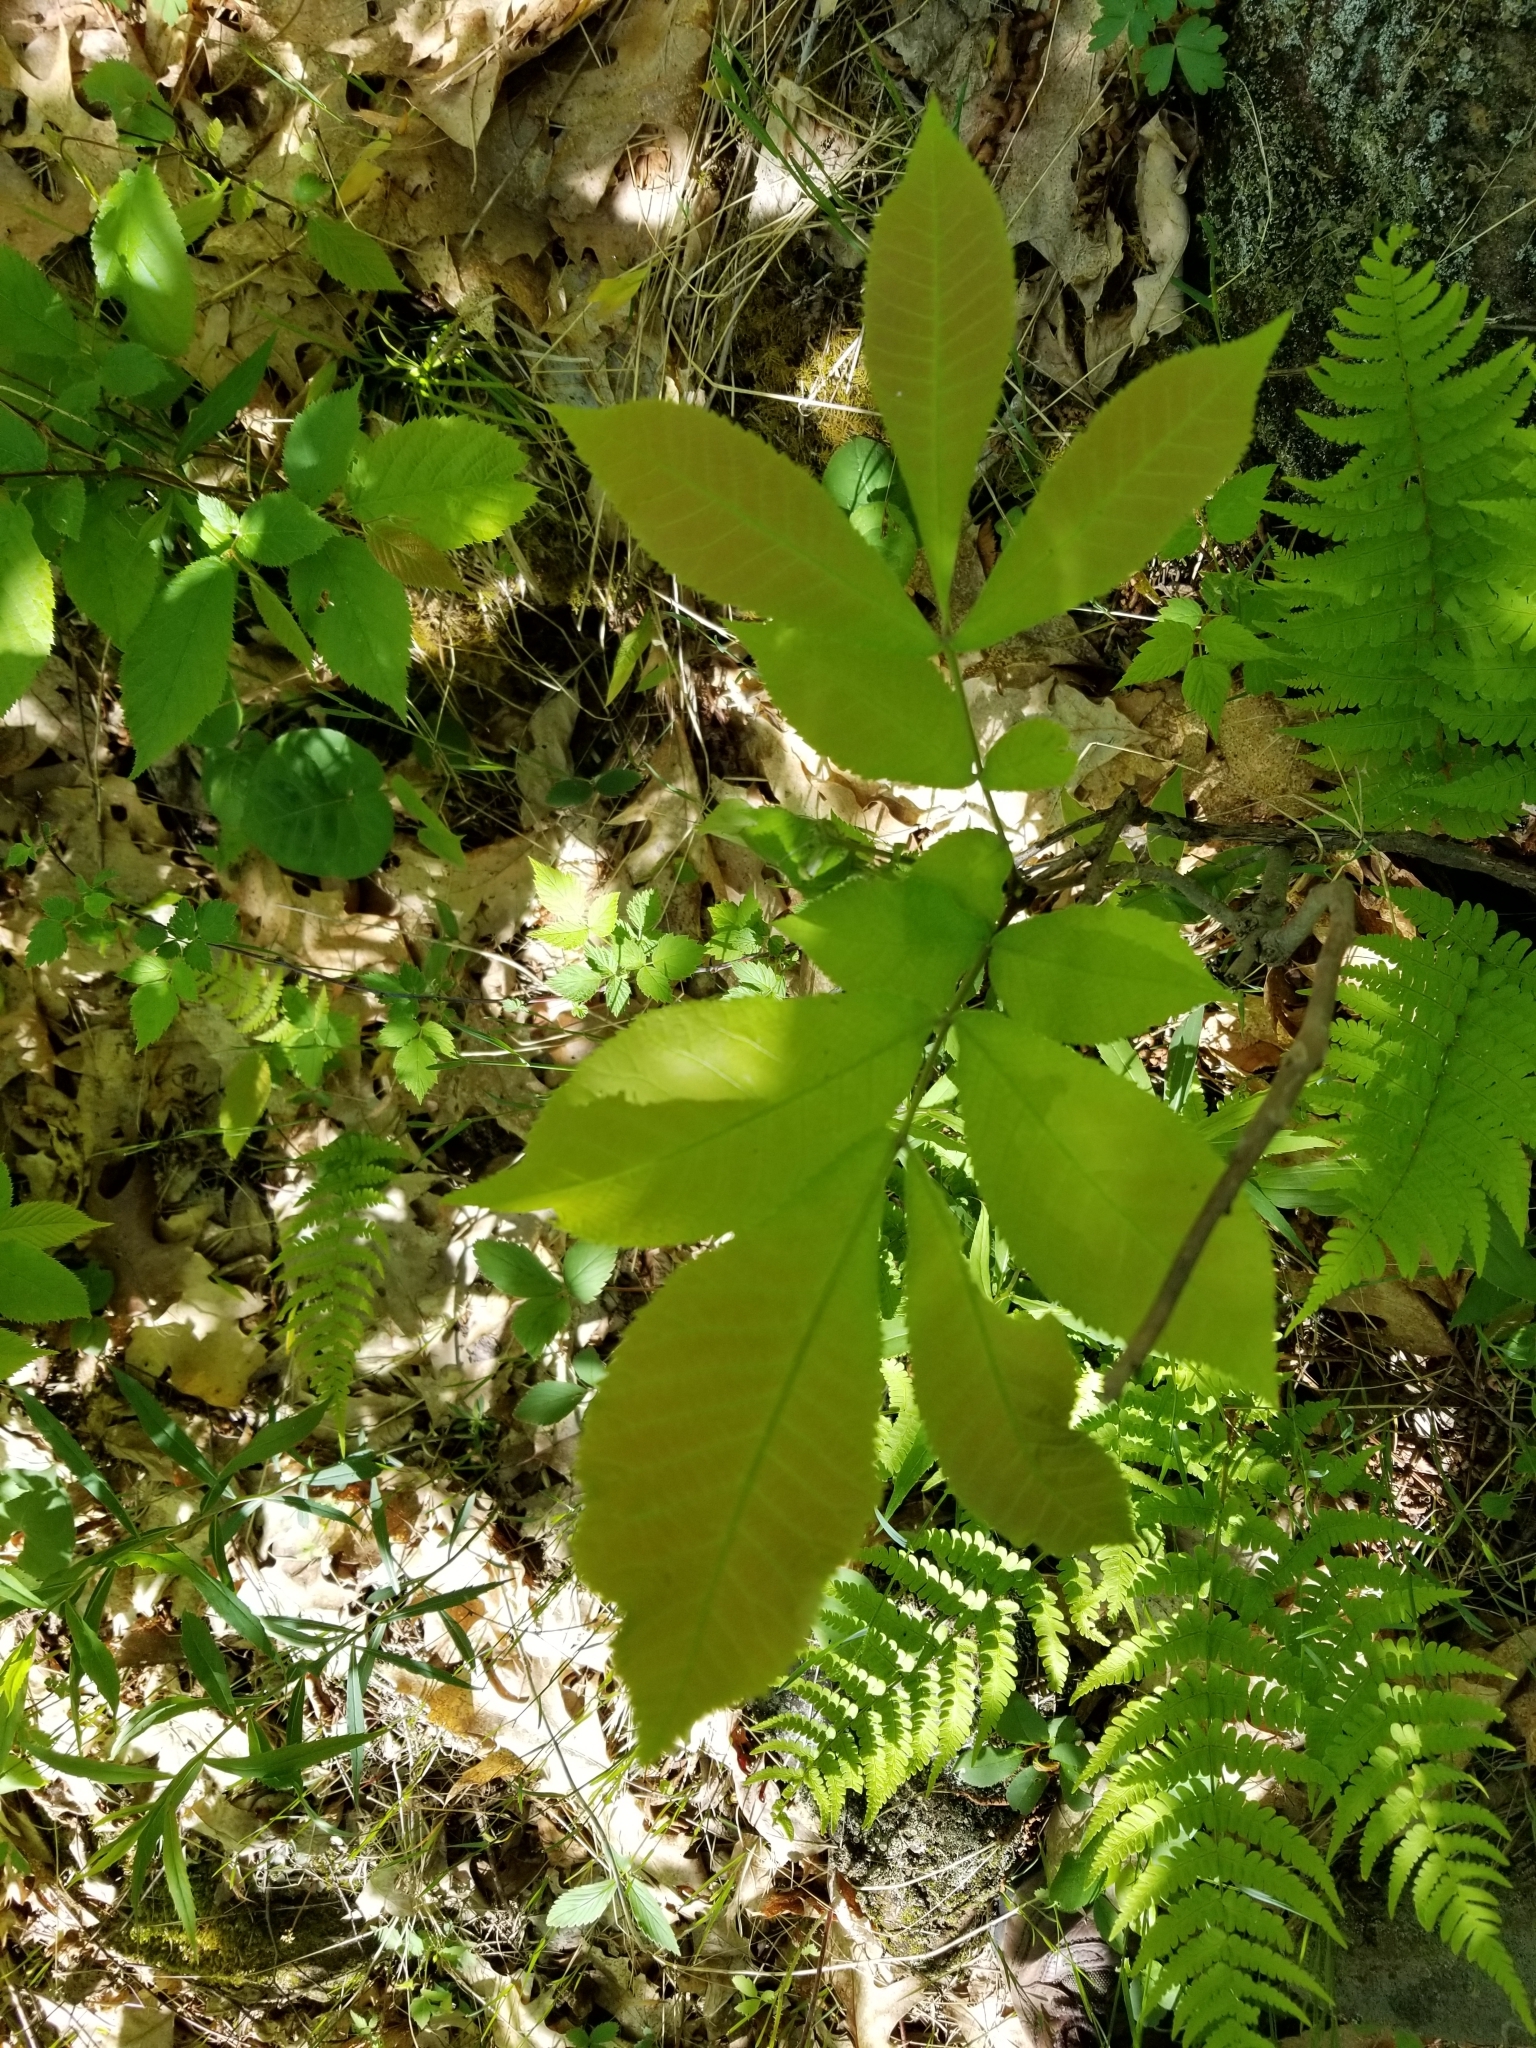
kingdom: Plantae
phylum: Tracheophyta
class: Magnoliopsida
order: Fagales
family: Juglandaceae
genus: Carya
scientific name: Carya cordiformis
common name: Bitternut hickory
